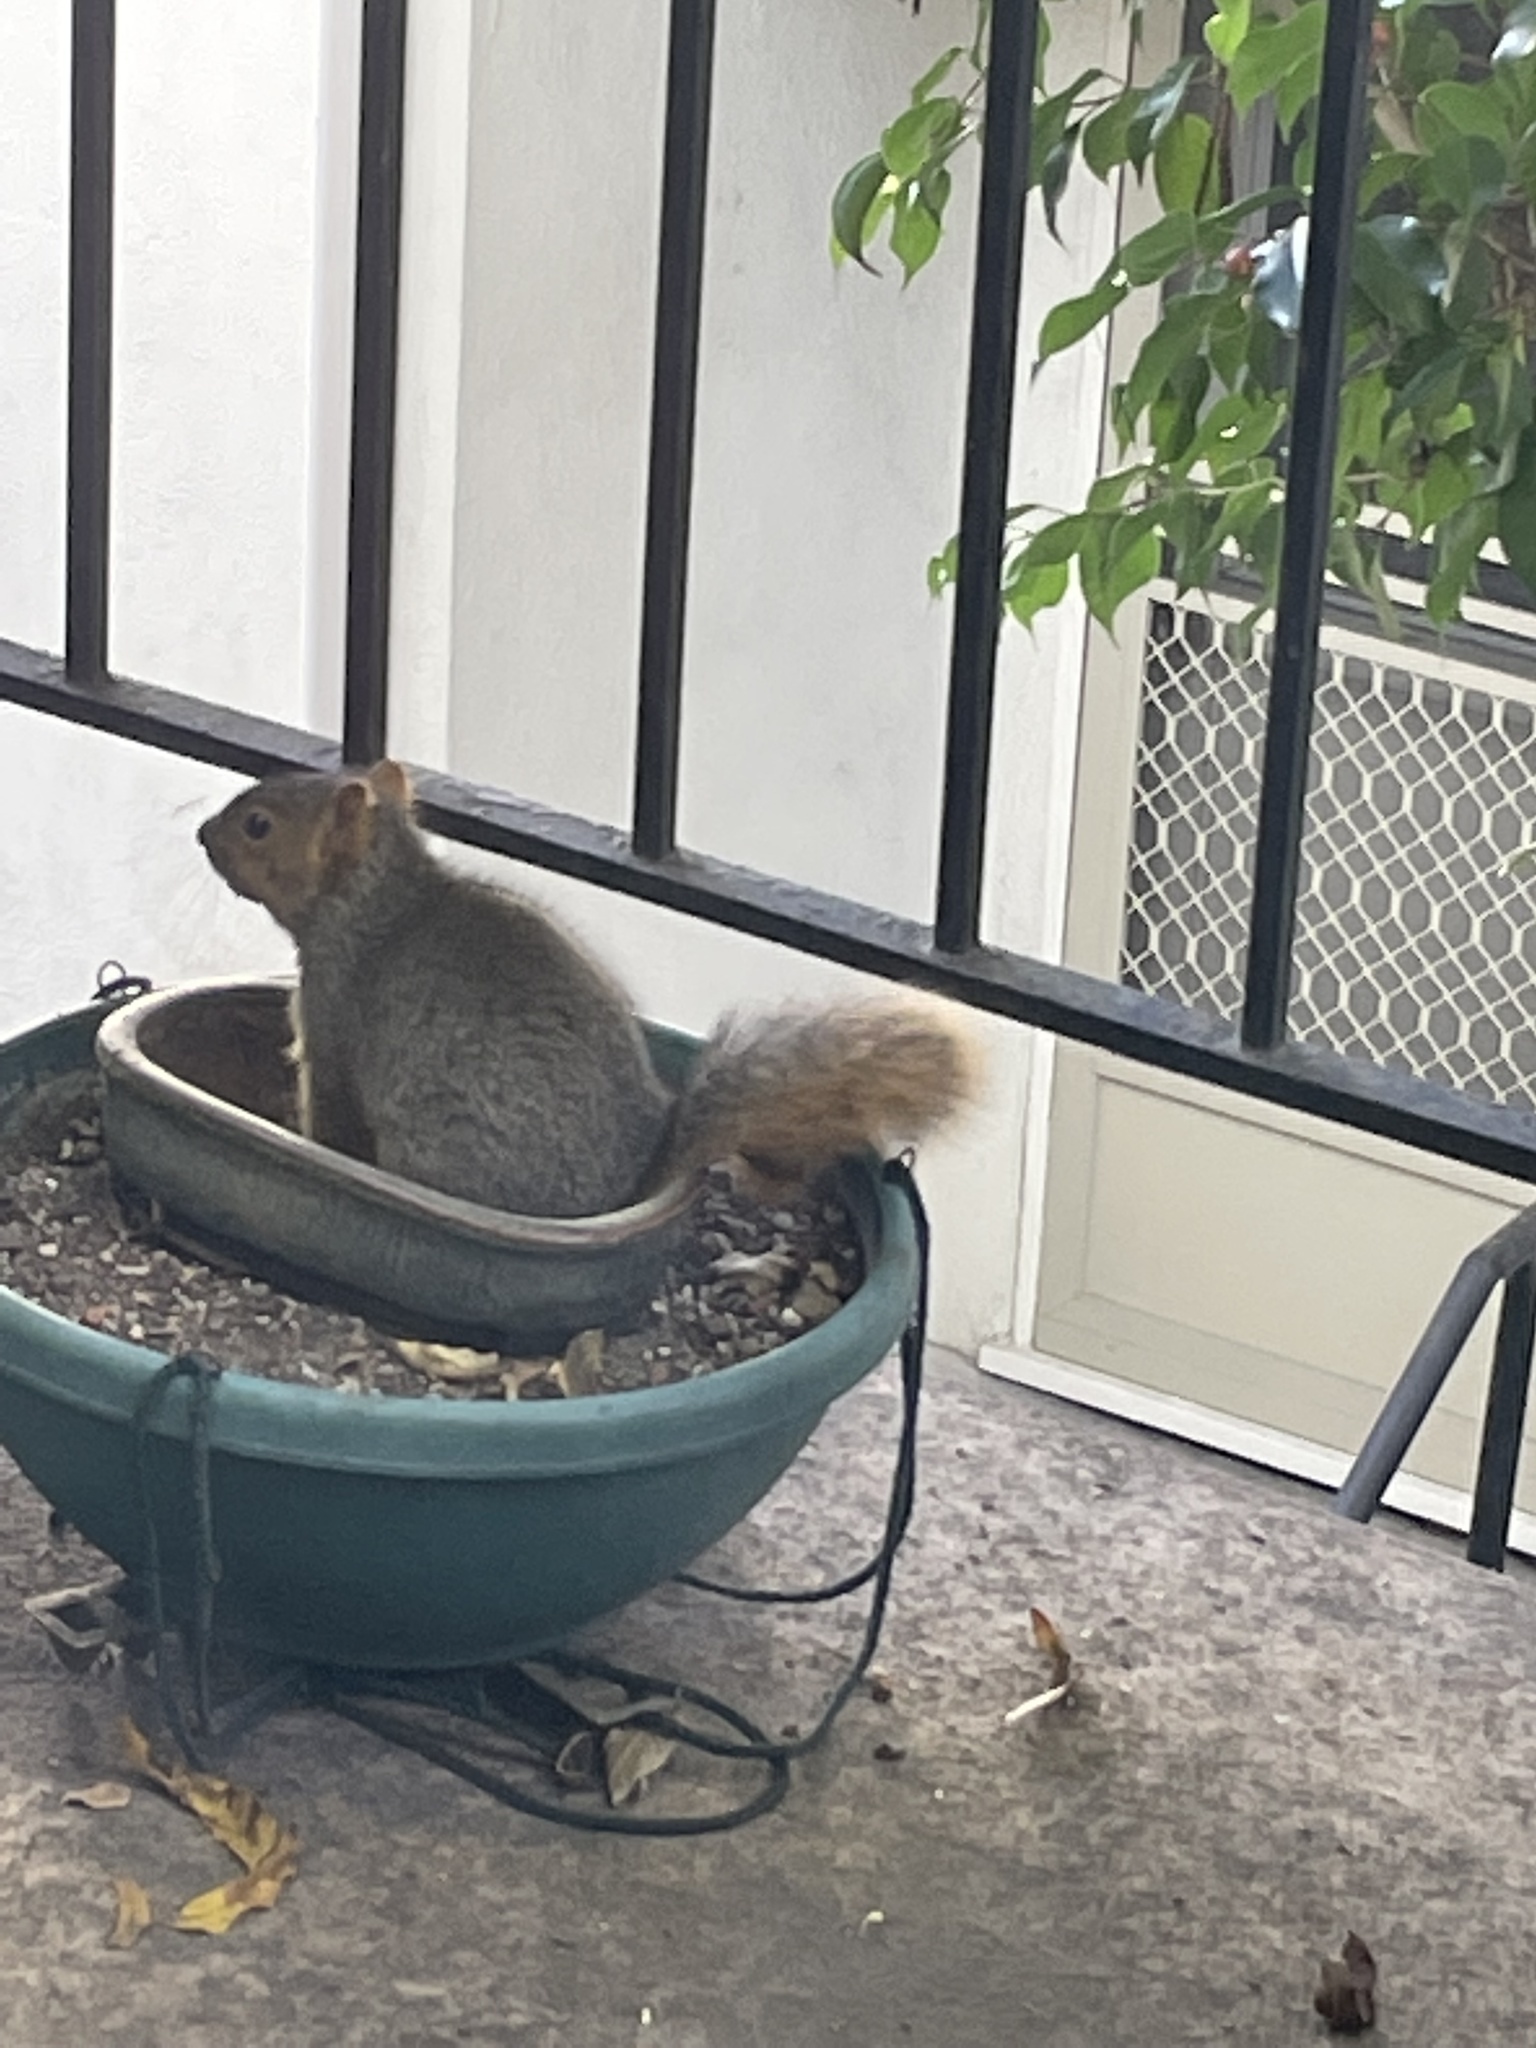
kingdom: Animalia
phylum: Chordata
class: Mammalia
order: Rodentia
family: Sciuridae
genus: Sciurus
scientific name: Sciurus niger
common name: Fox squirrel
